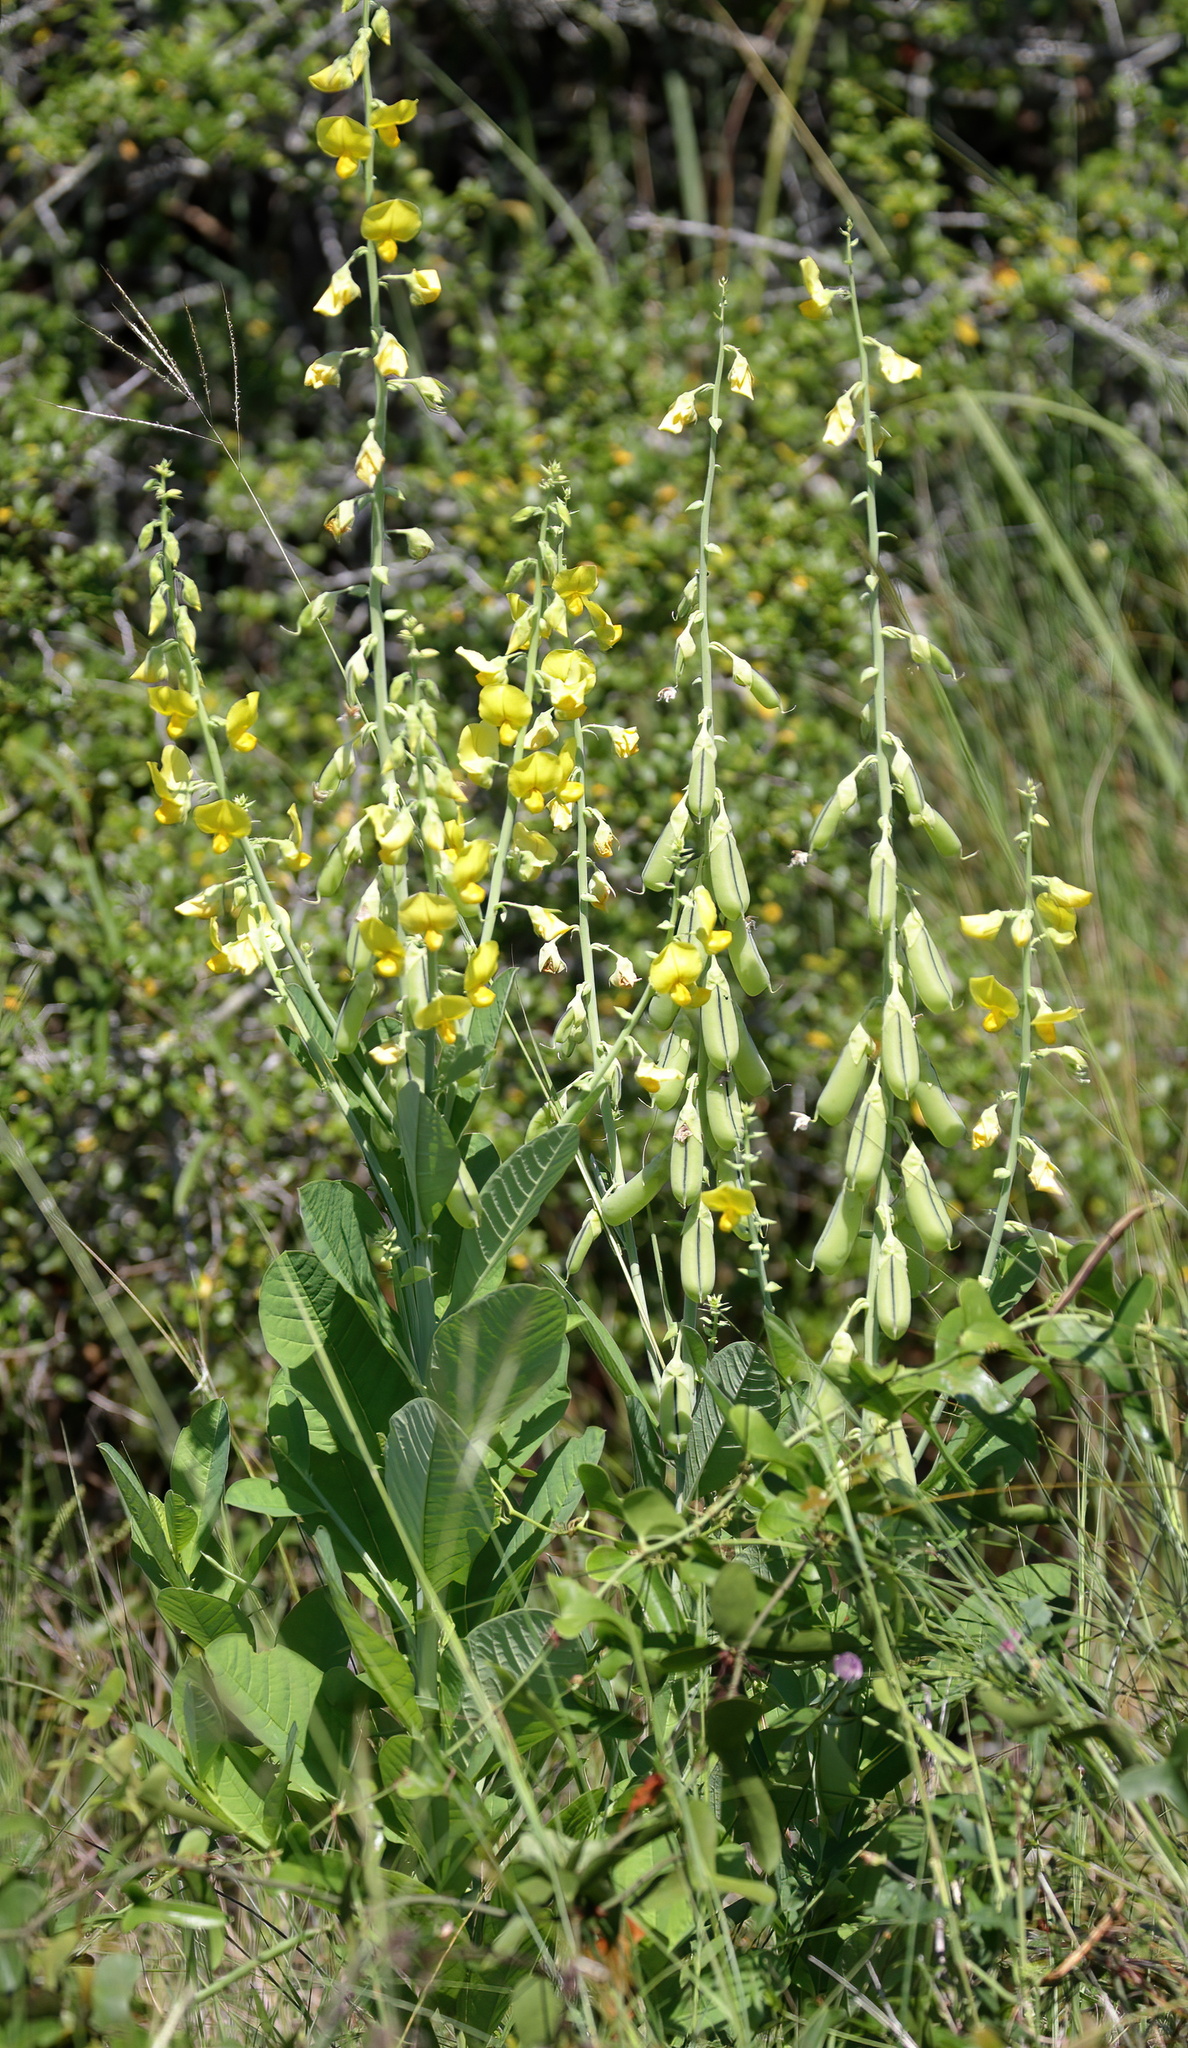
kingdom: Plantae
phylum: Tracheophyta
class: Magnoliopsida
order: Fabales
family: Fabaceae
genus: Crotalaria
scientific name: Crotalaria spectabilis
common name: Showy rattlebox
